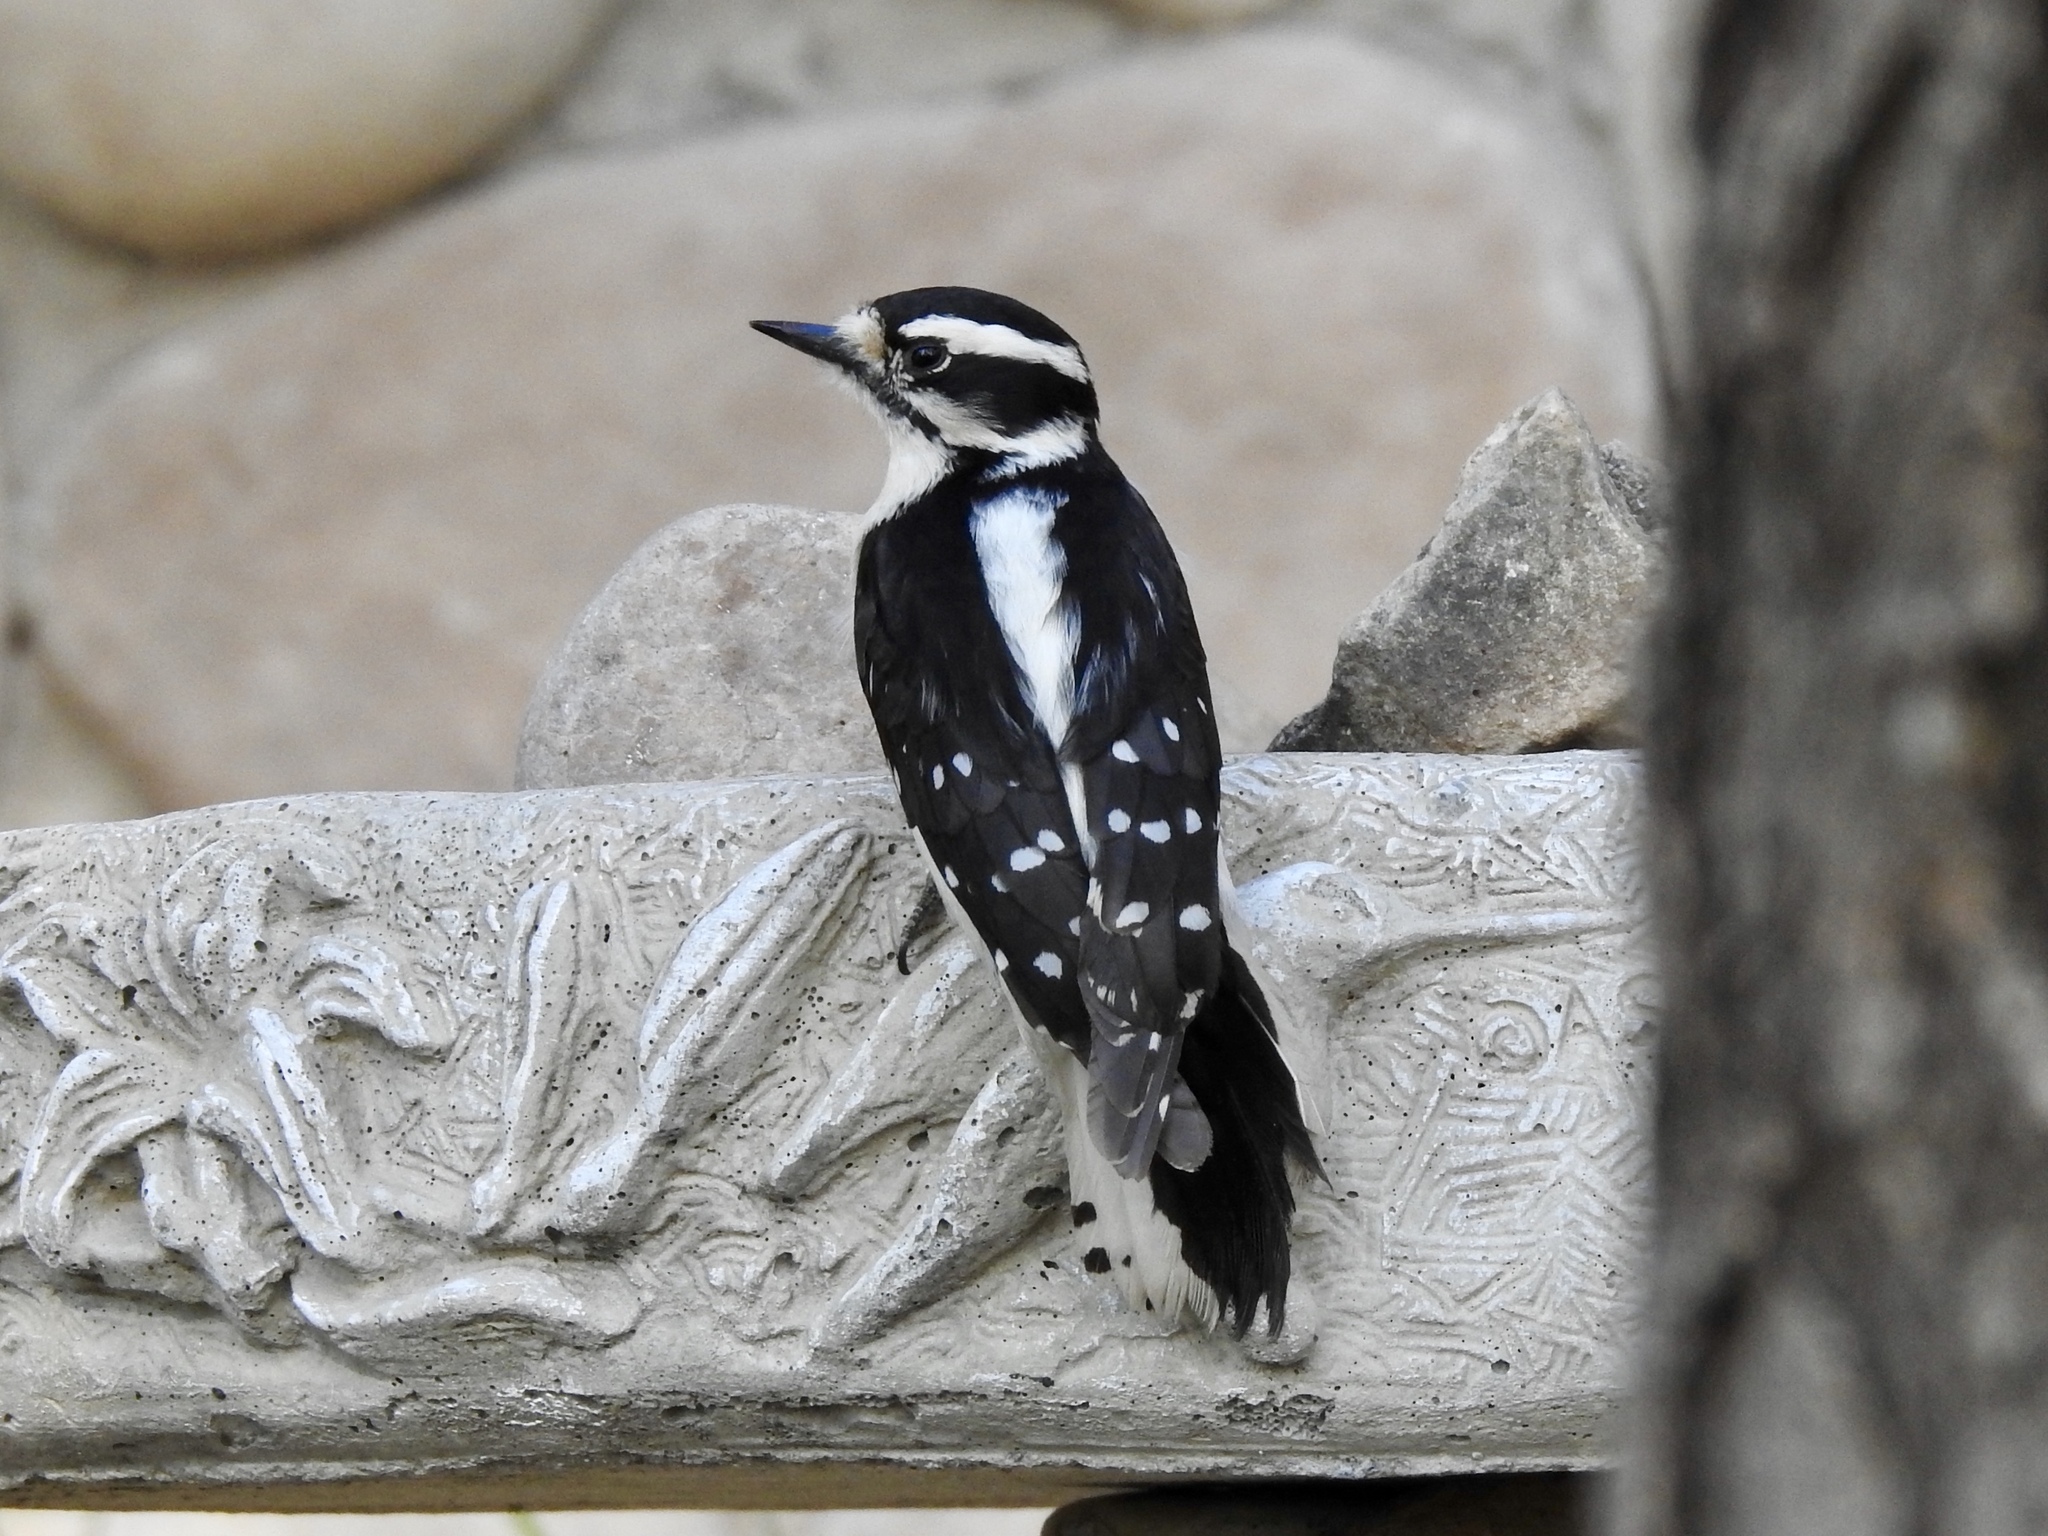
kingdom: Animalia
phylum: Chordata
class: Aves
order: Piciformes
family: Picidae
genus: Dryobates
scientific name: Dryobates pubescens
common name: Downy woodpecker
